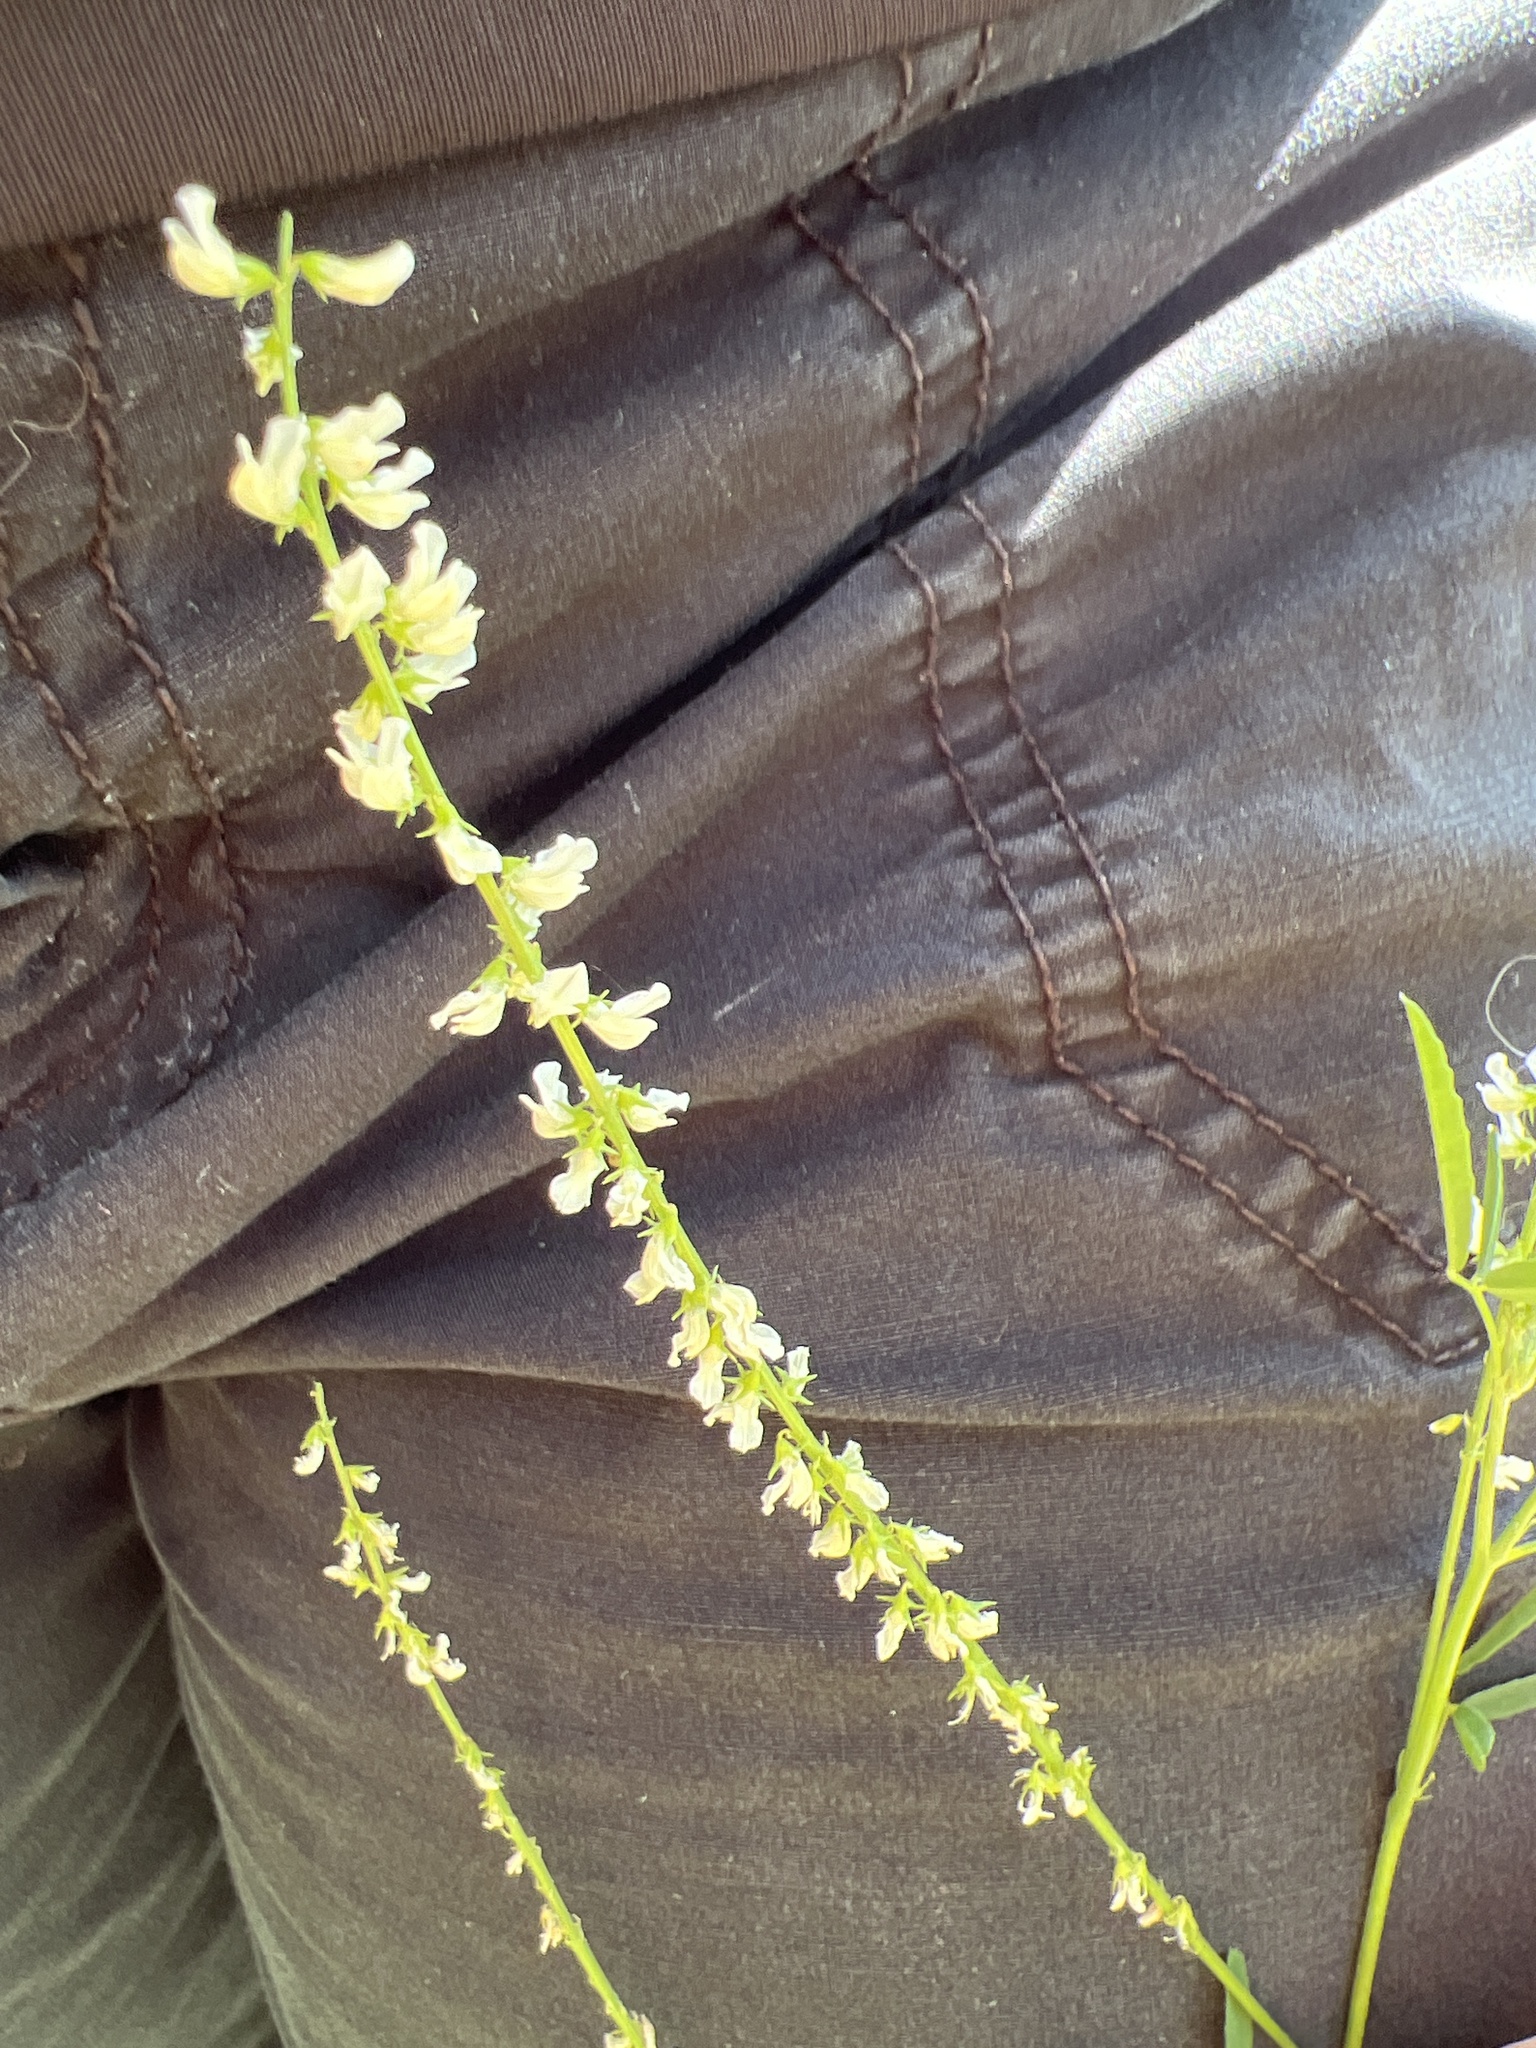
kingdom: Plantae
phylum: Tracheophyta
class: Magnoliopsida
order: Fabales
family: Fabaceae
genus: Melilotus
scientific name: Melilotus albus
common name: White melilot
